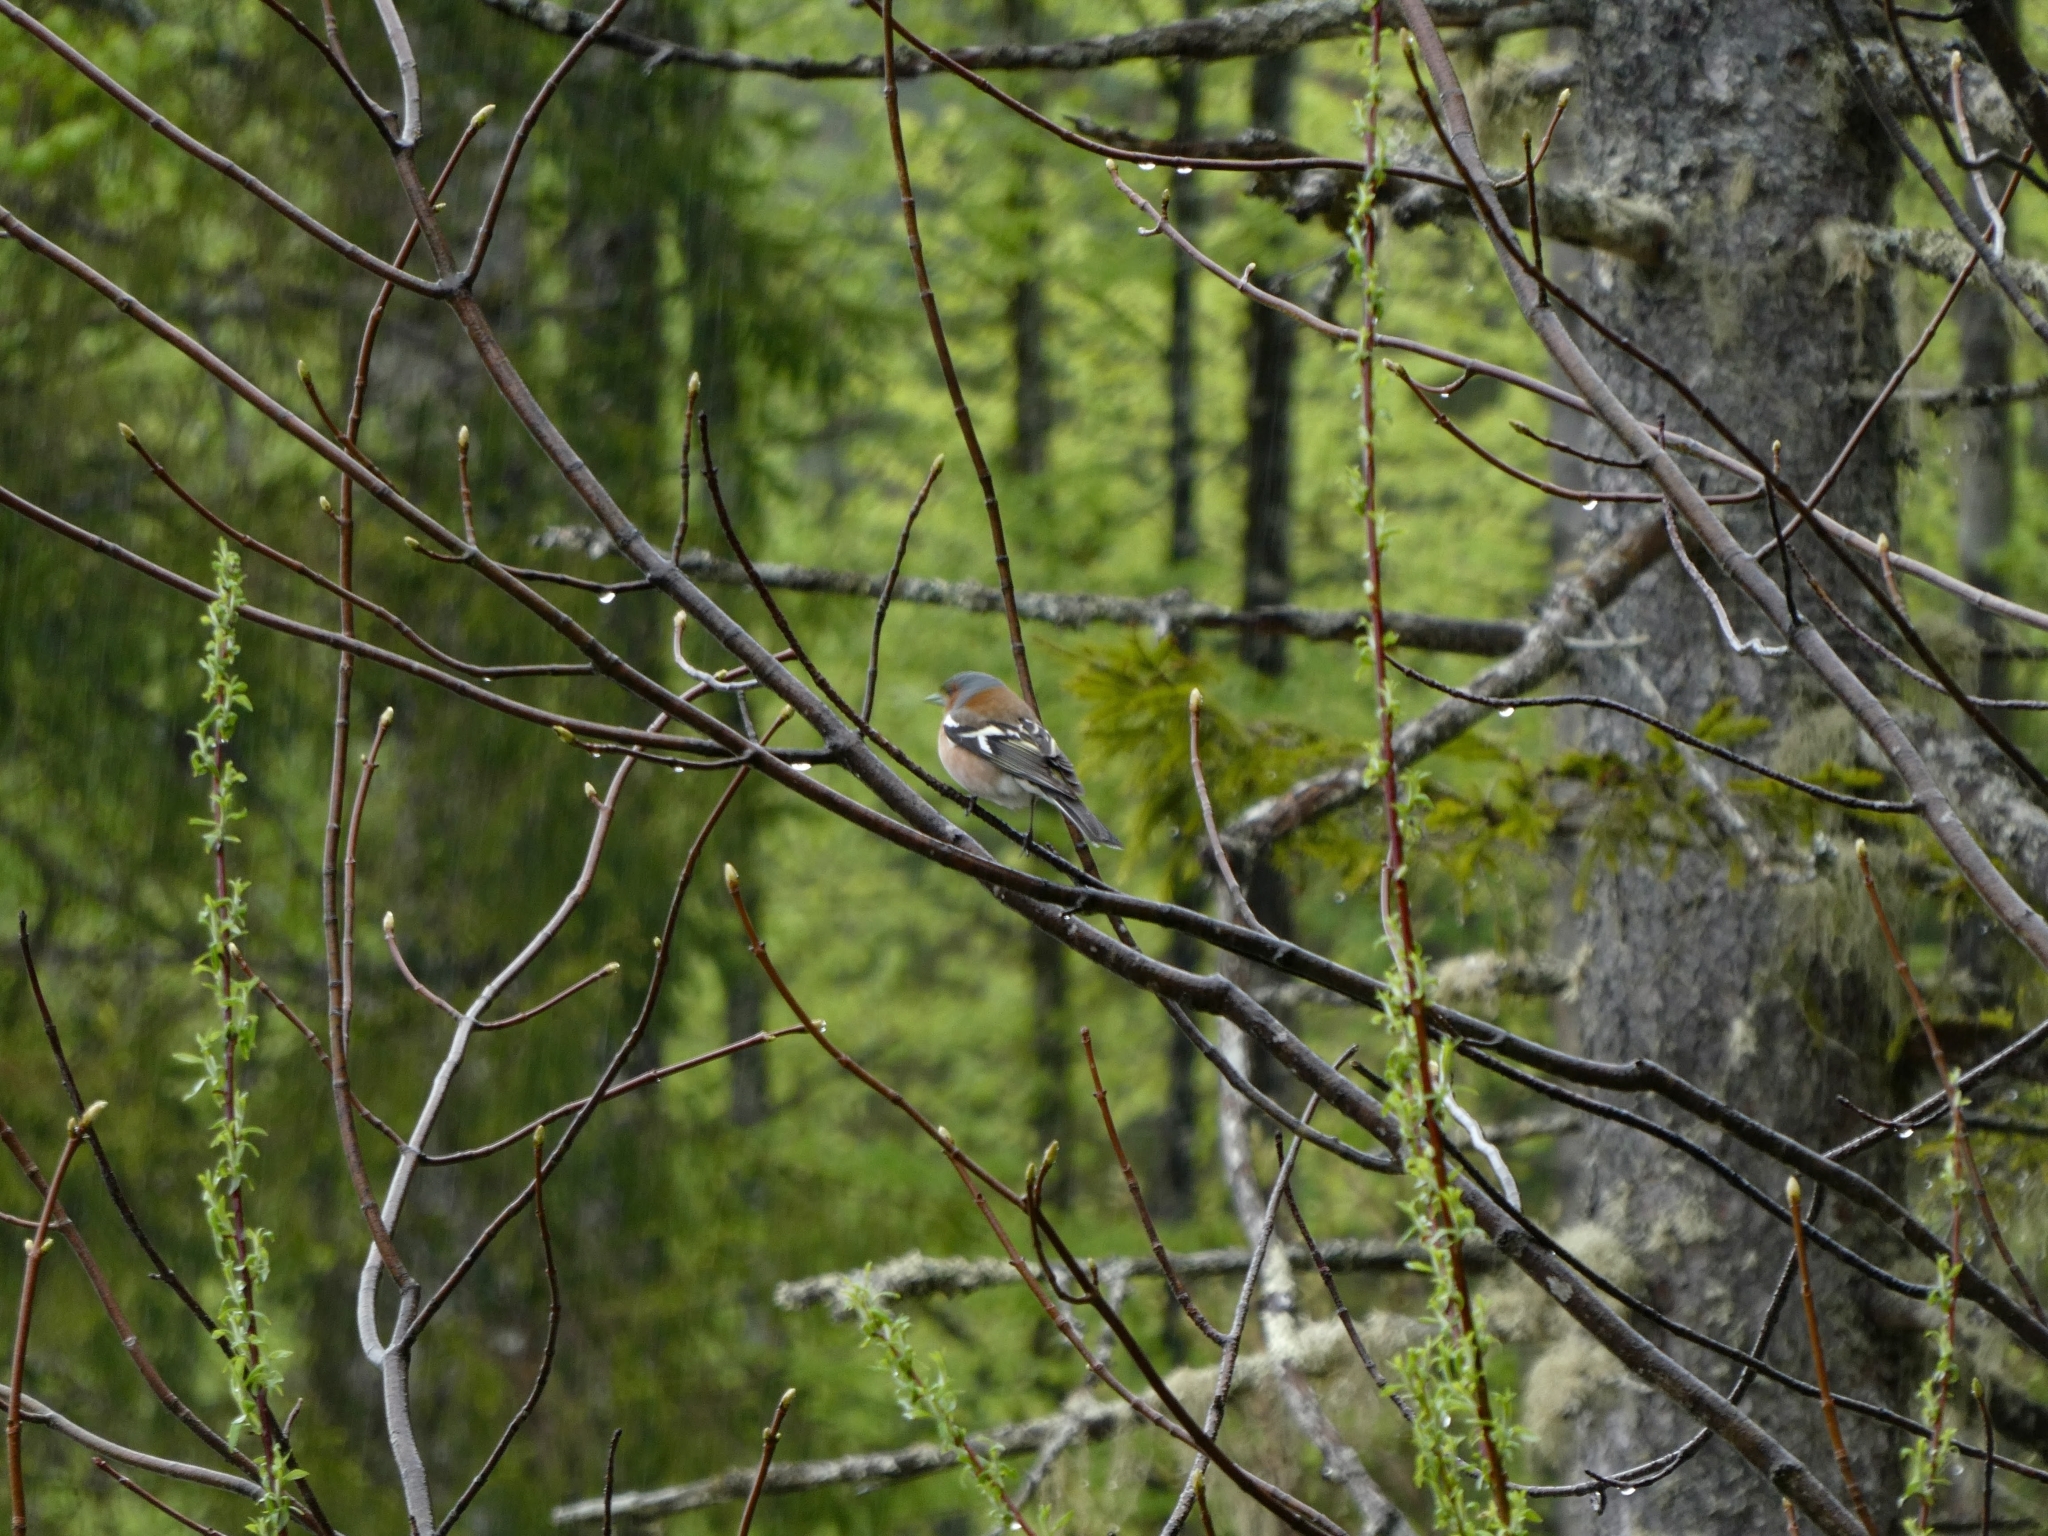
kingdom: Animalia
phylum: Chordata
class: Aves
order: Passeriformes
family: Fringillidae
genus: Fringilla
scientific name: Fringilla coelebs
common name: Common chaffinch
